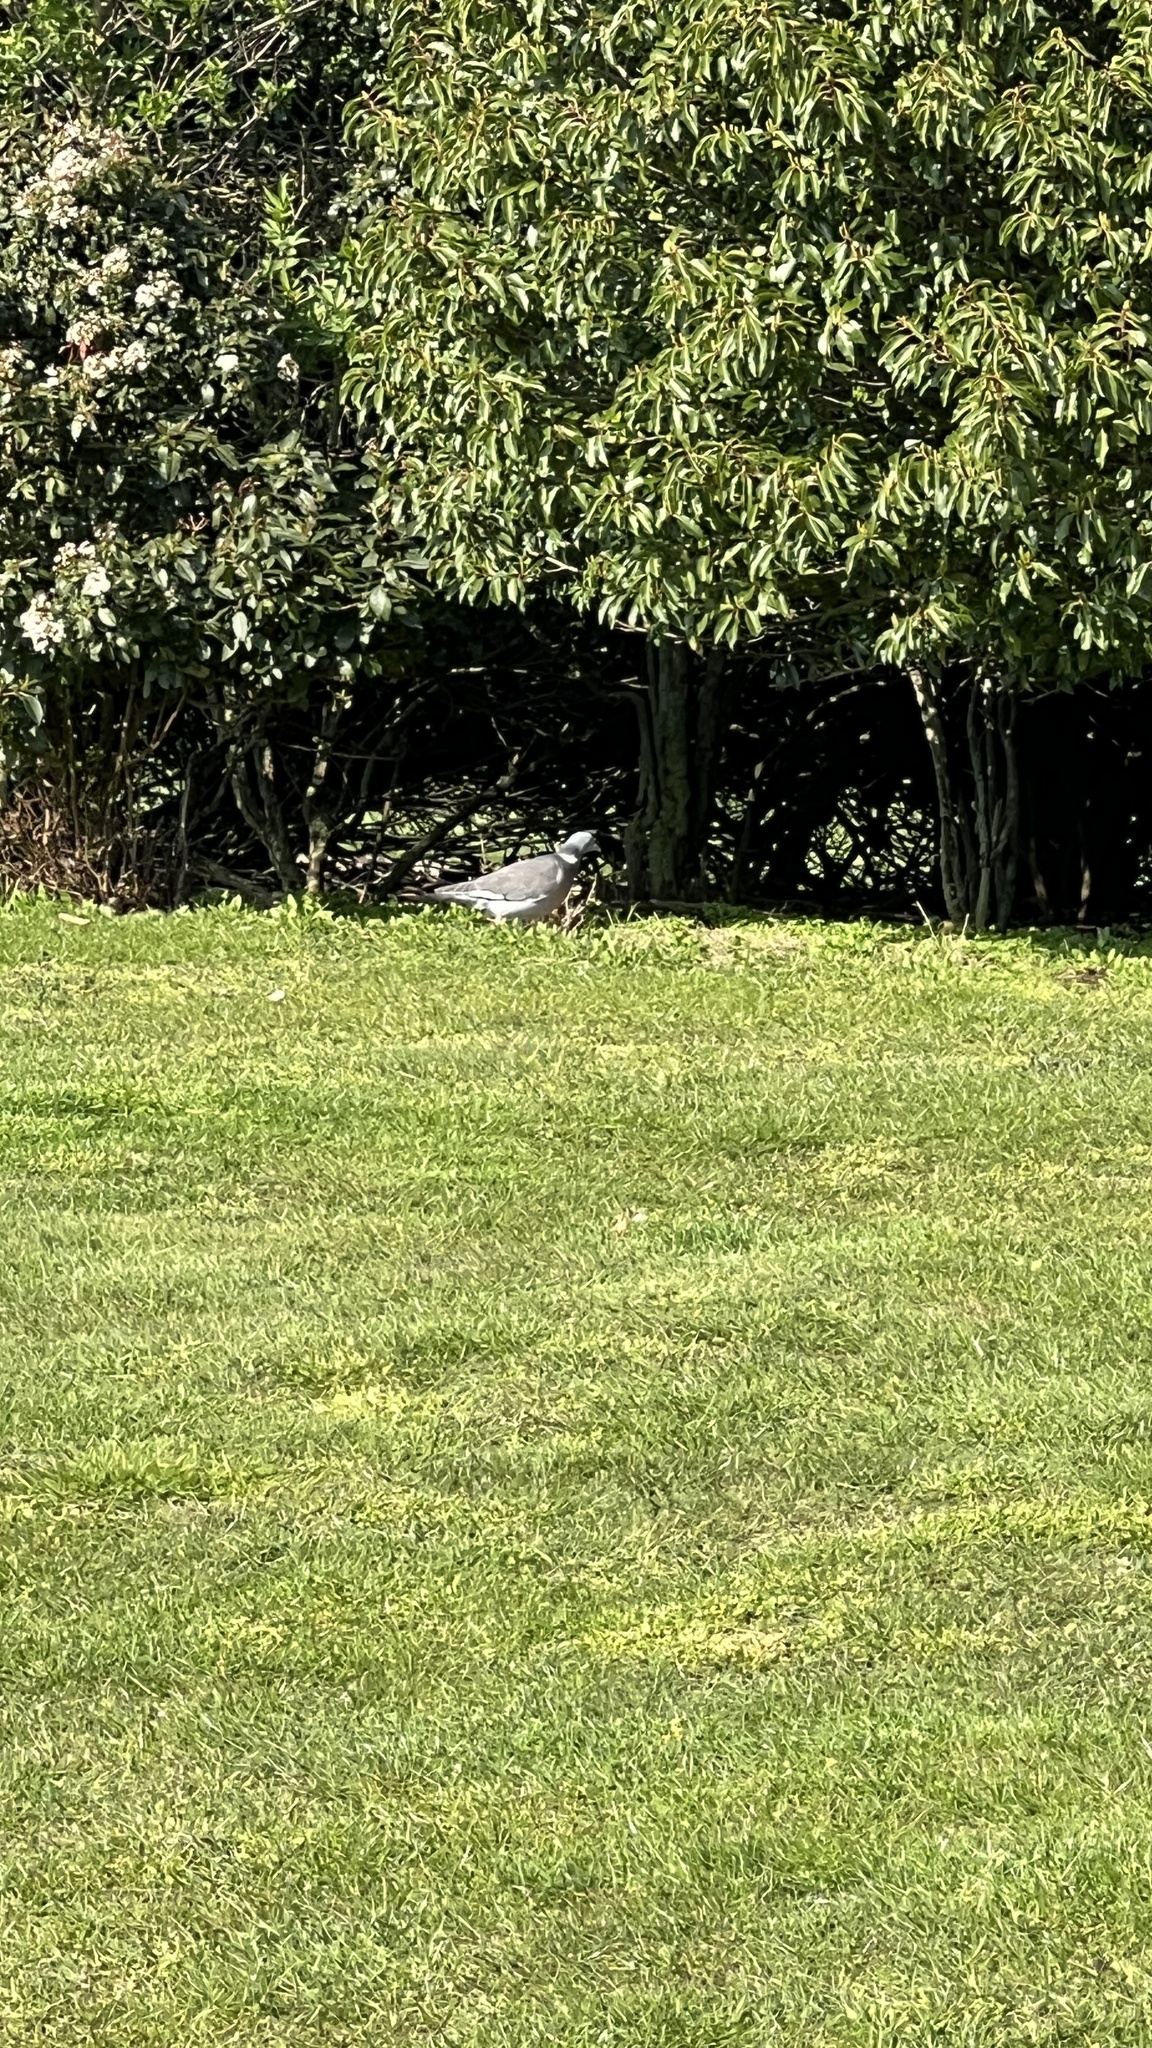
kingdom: Animalia
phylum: Chordata
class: Aves
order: Columbiformes
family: Columbidae
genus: Columba
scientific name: Columba palumbus
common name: Common wood pigeon
